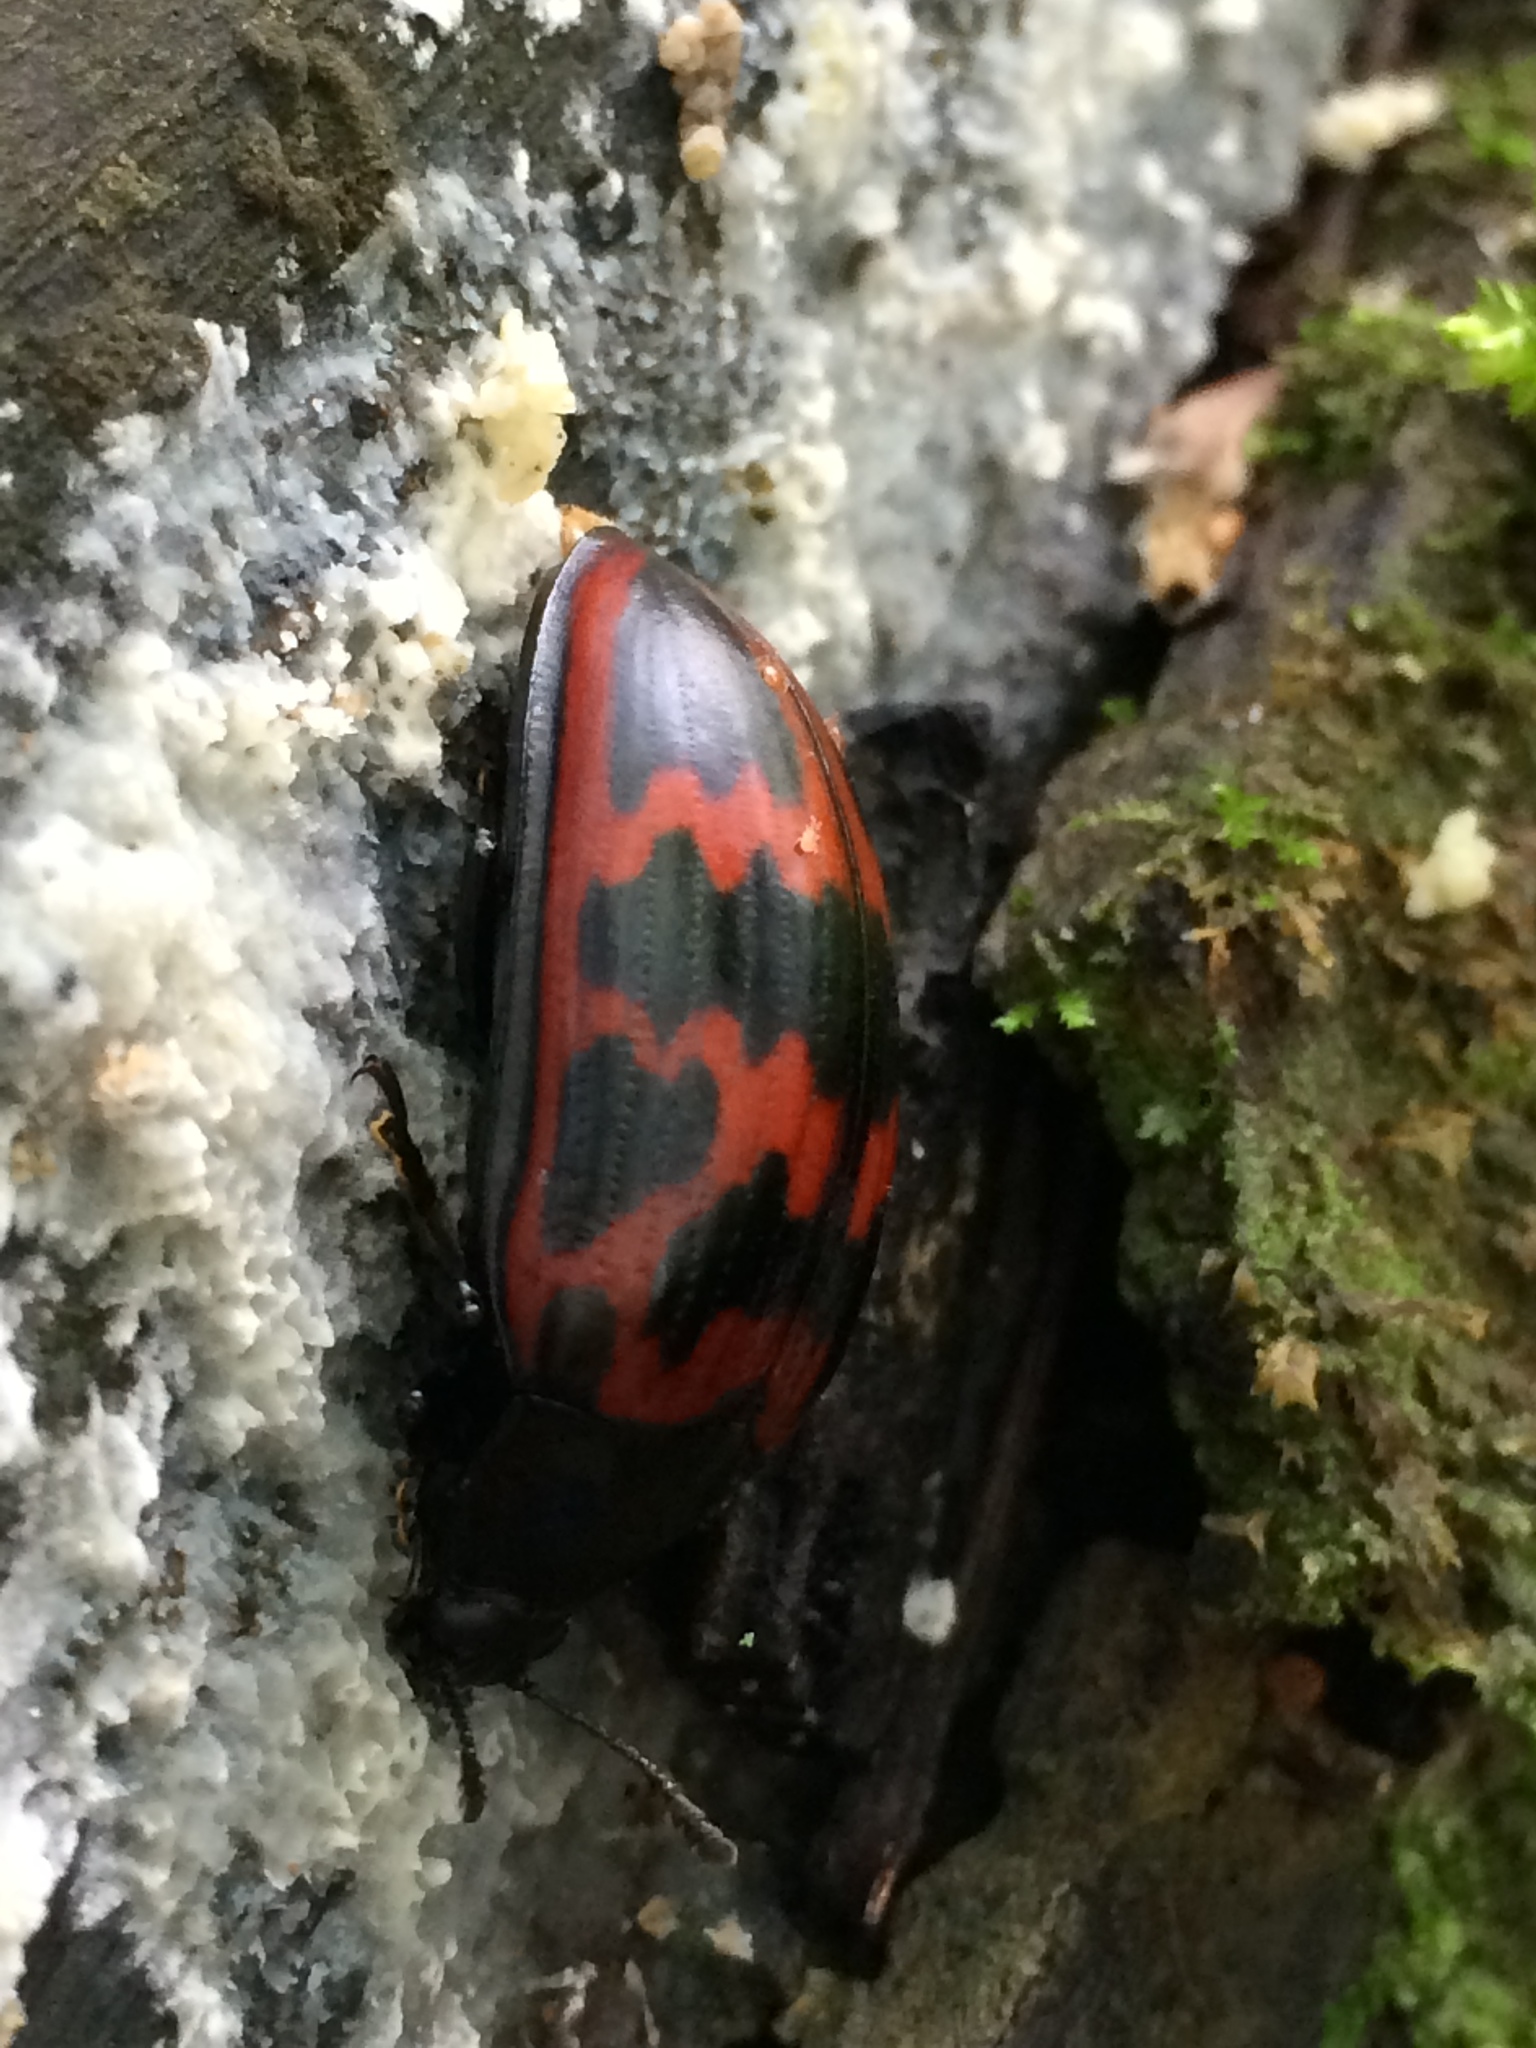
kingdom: Animalia
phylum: Arthropoda
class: Insecta
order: Coleoptera
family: Erotylidae
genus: Megischyrus
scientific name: Megischyrus undatus
